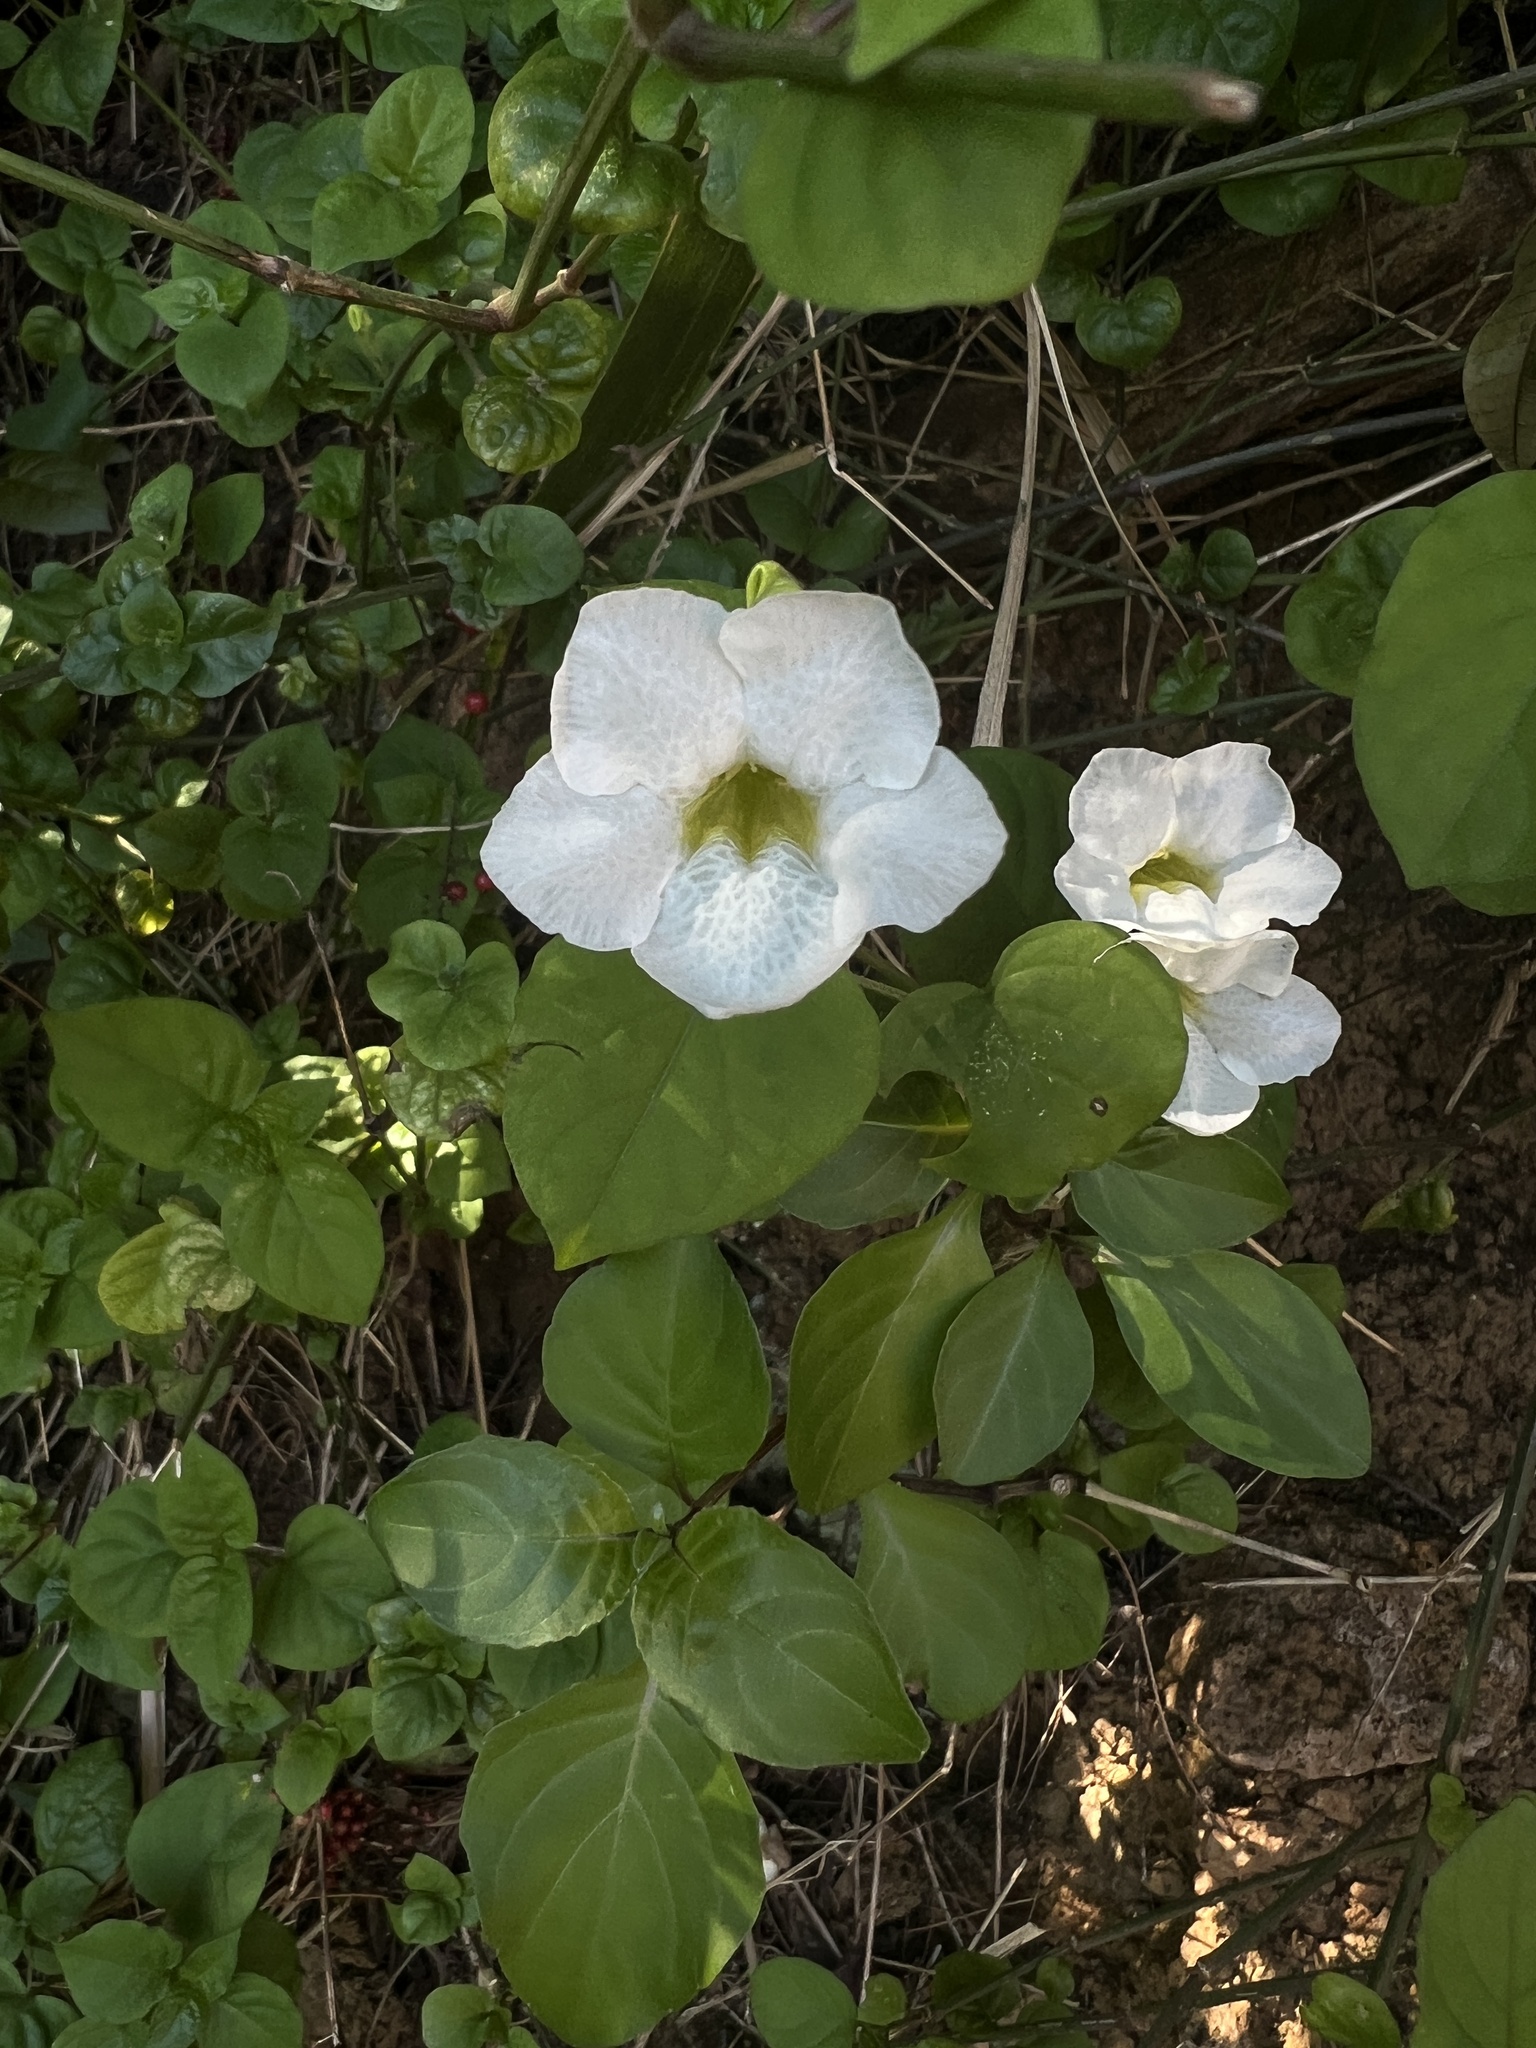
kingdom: Plantae
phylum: Tracheophyta
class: Magnoliopsida
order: Lamiales
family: Acanthaceae
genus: Asystasia
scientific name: Asystasia gangetica
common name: Chinese violet
